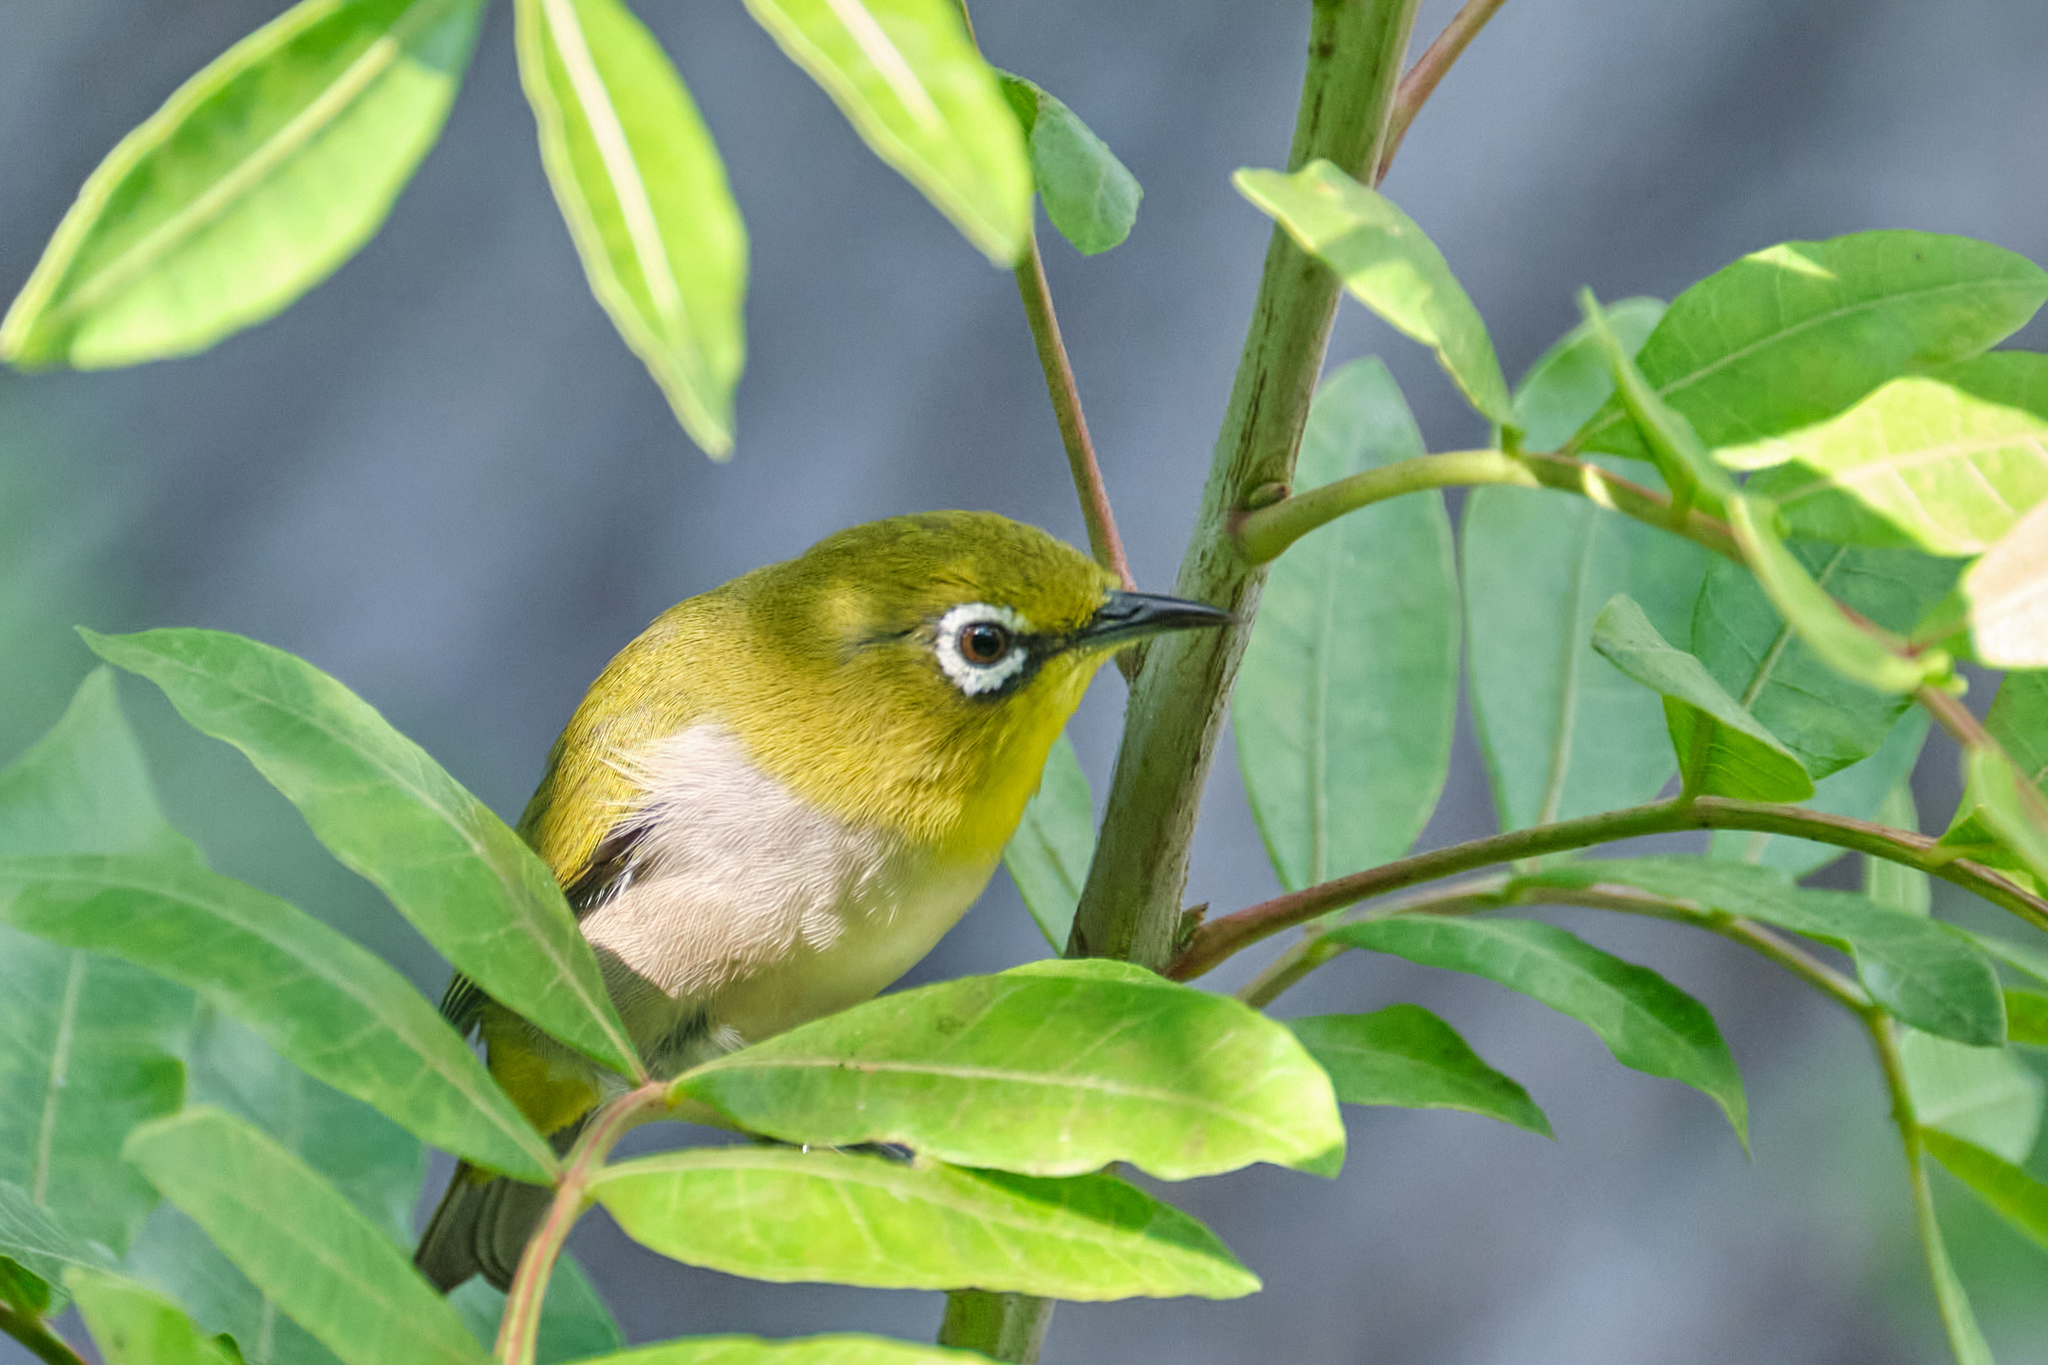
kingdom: Animalia
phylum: Chordata
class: Aves
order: Passeriformes
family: Zosteropidae
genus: Zosterops
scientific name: Zosterops simplex
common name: Swinhoe's white-eye
